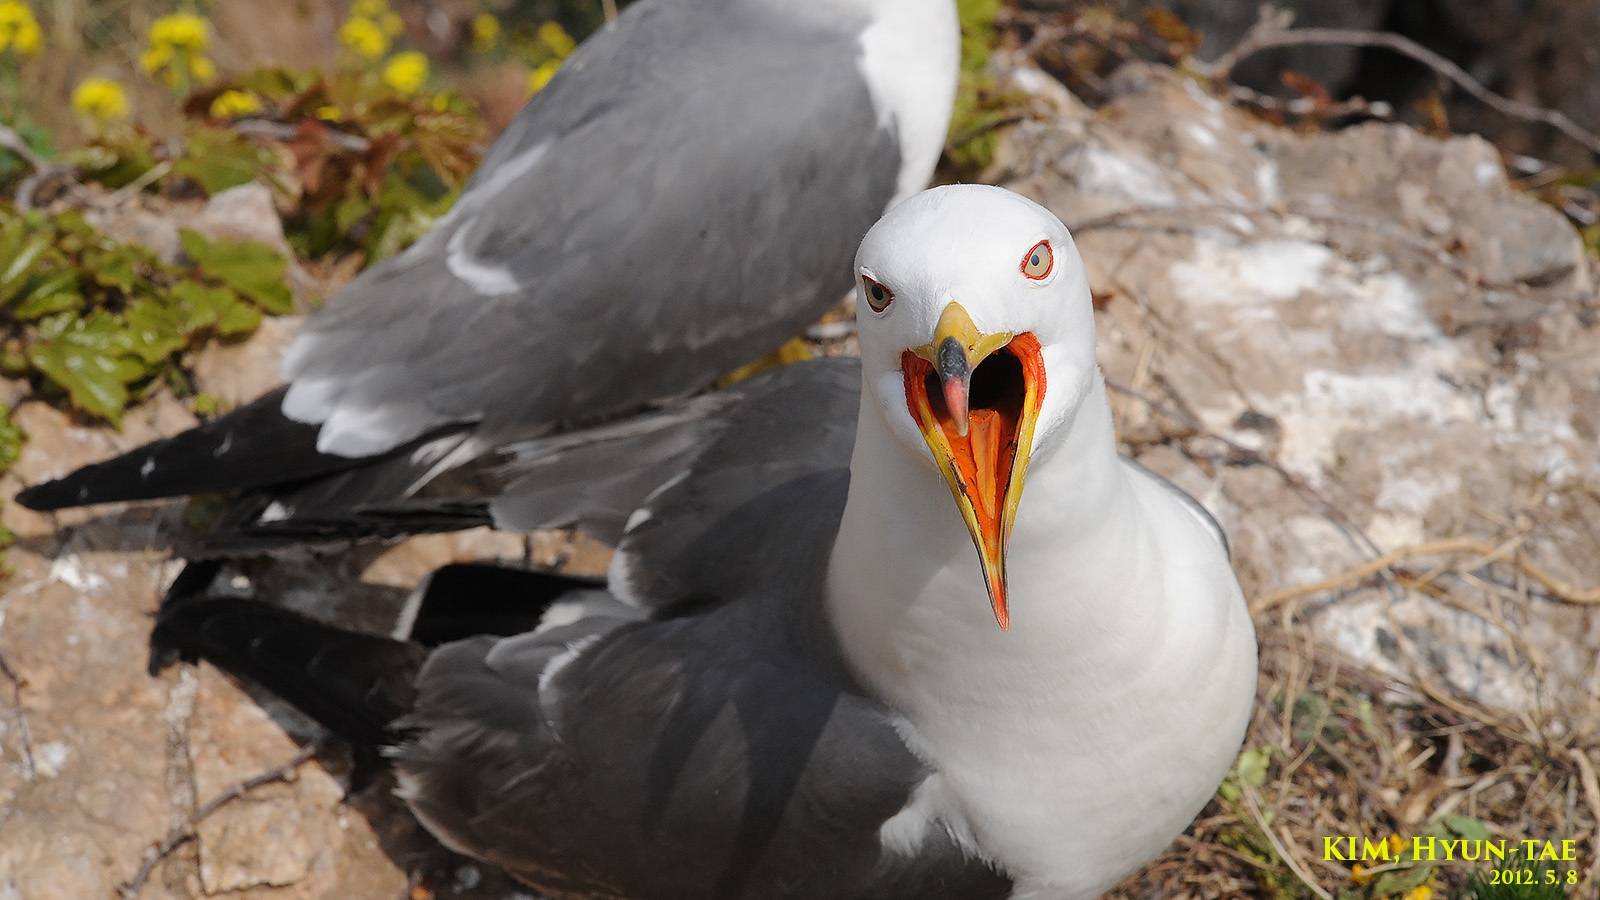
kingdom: Animalia
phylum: Chordata
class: Aves
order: Charadriiformes
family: Laridae
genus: Larus
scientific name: Larus crassirostris
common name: Black-tailed gull
